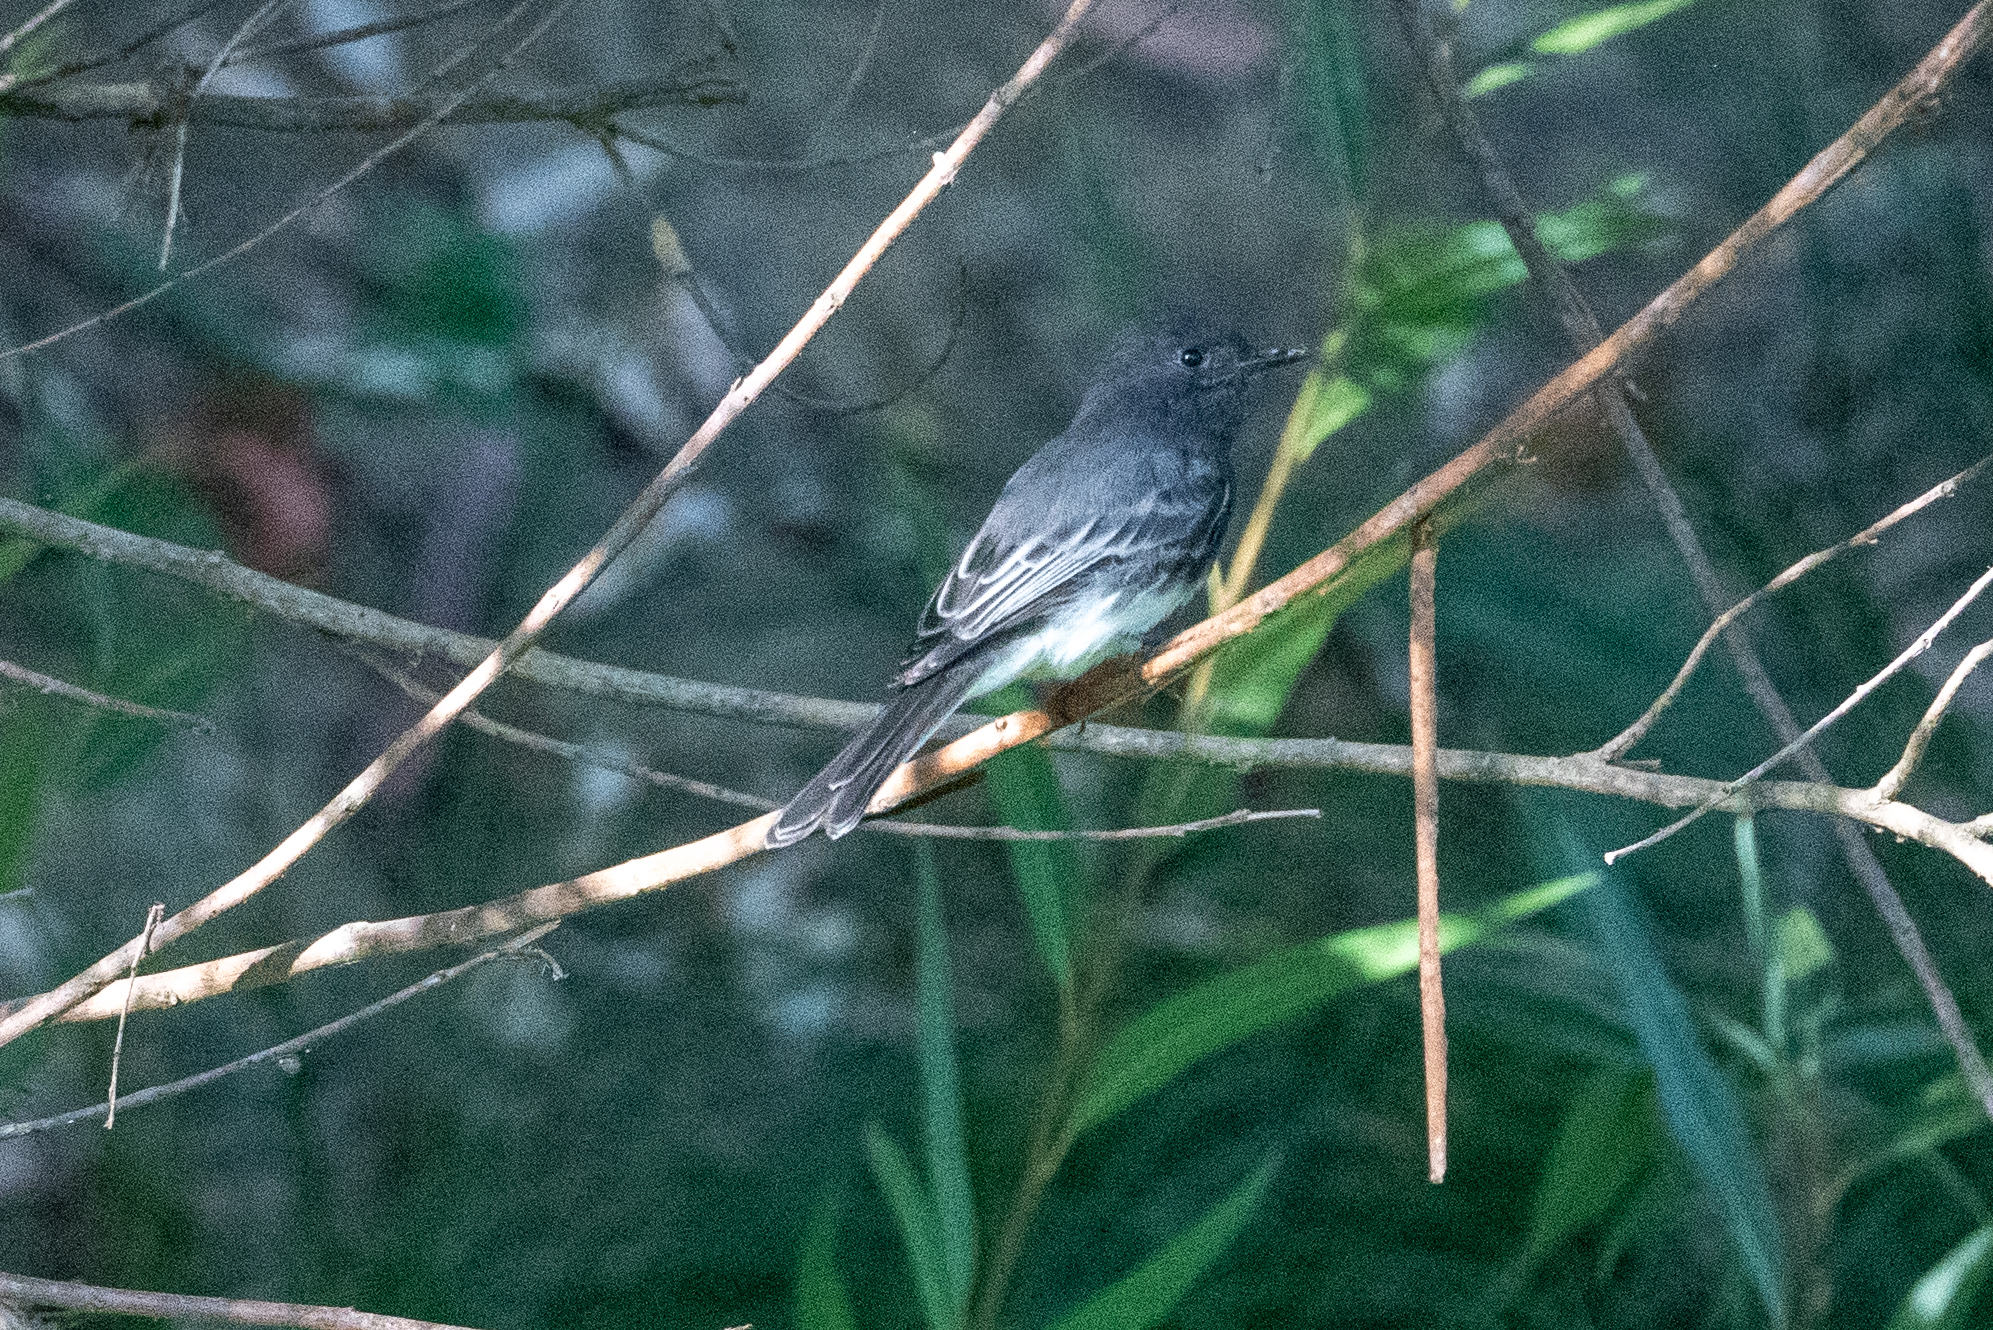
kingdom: Animalia
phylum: Chordata
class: Aves
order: Passeriformes
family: Tyrannidae
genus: Sayornis
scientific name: Sayornis nigricans
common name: Black phoebe
